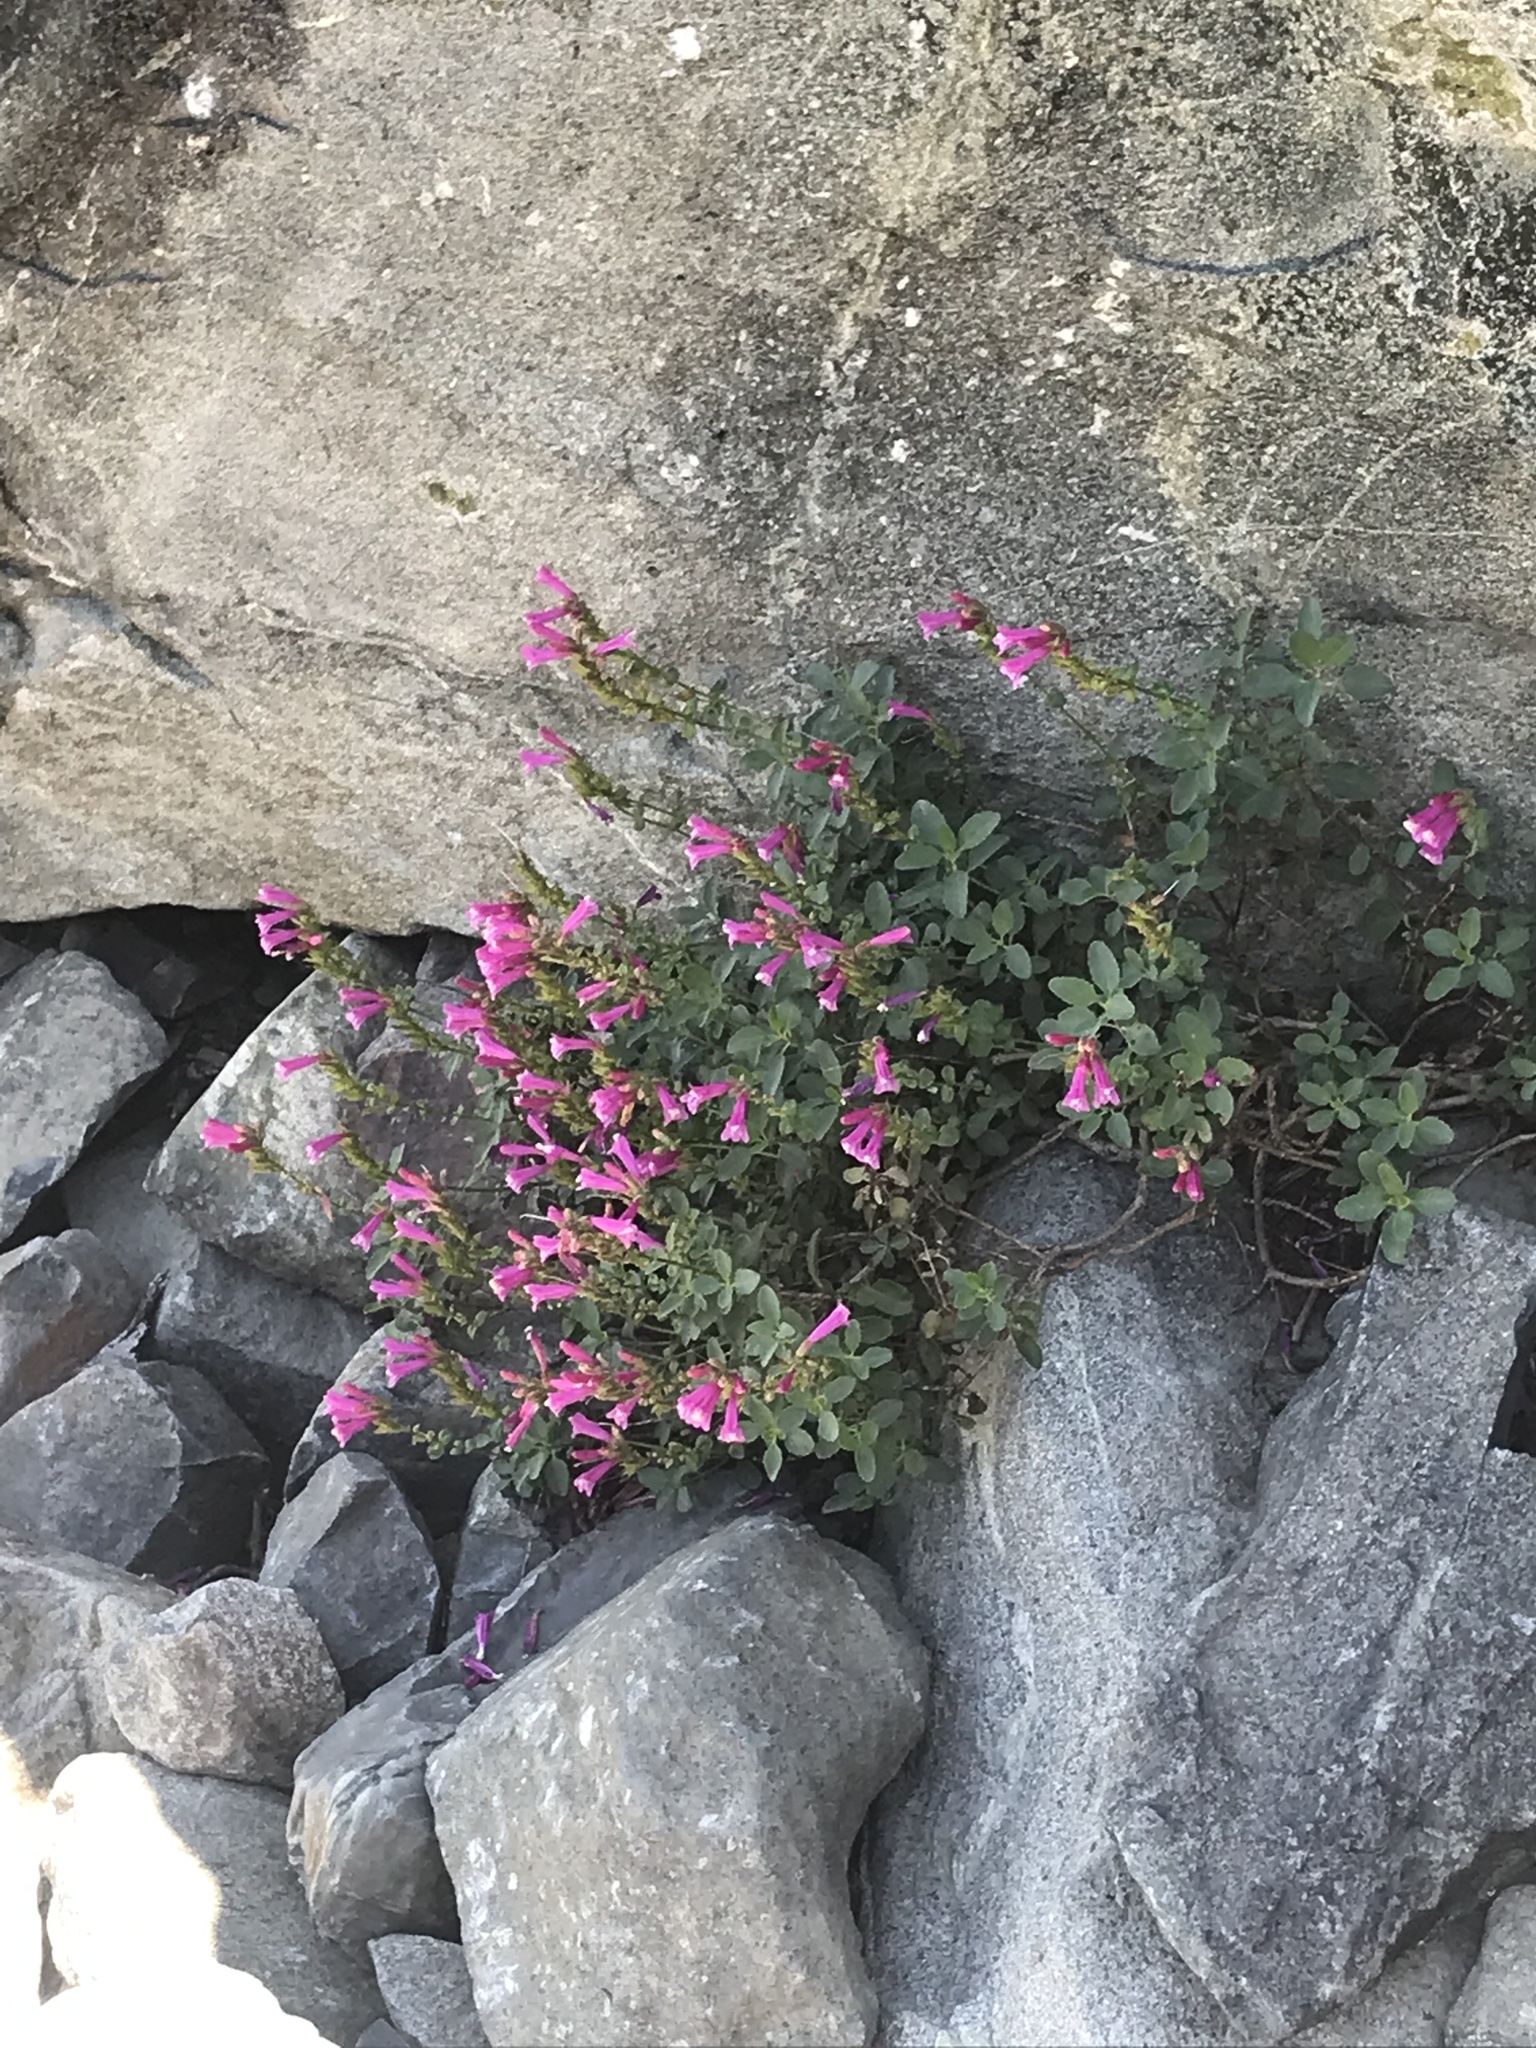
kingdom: Plantae
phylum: Tracheophyta
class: Magnoliopsida
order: Lamiales
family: Plantaginaceae
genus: Penstemon
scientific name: Penstemon newberryi
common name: Mountain-pride
